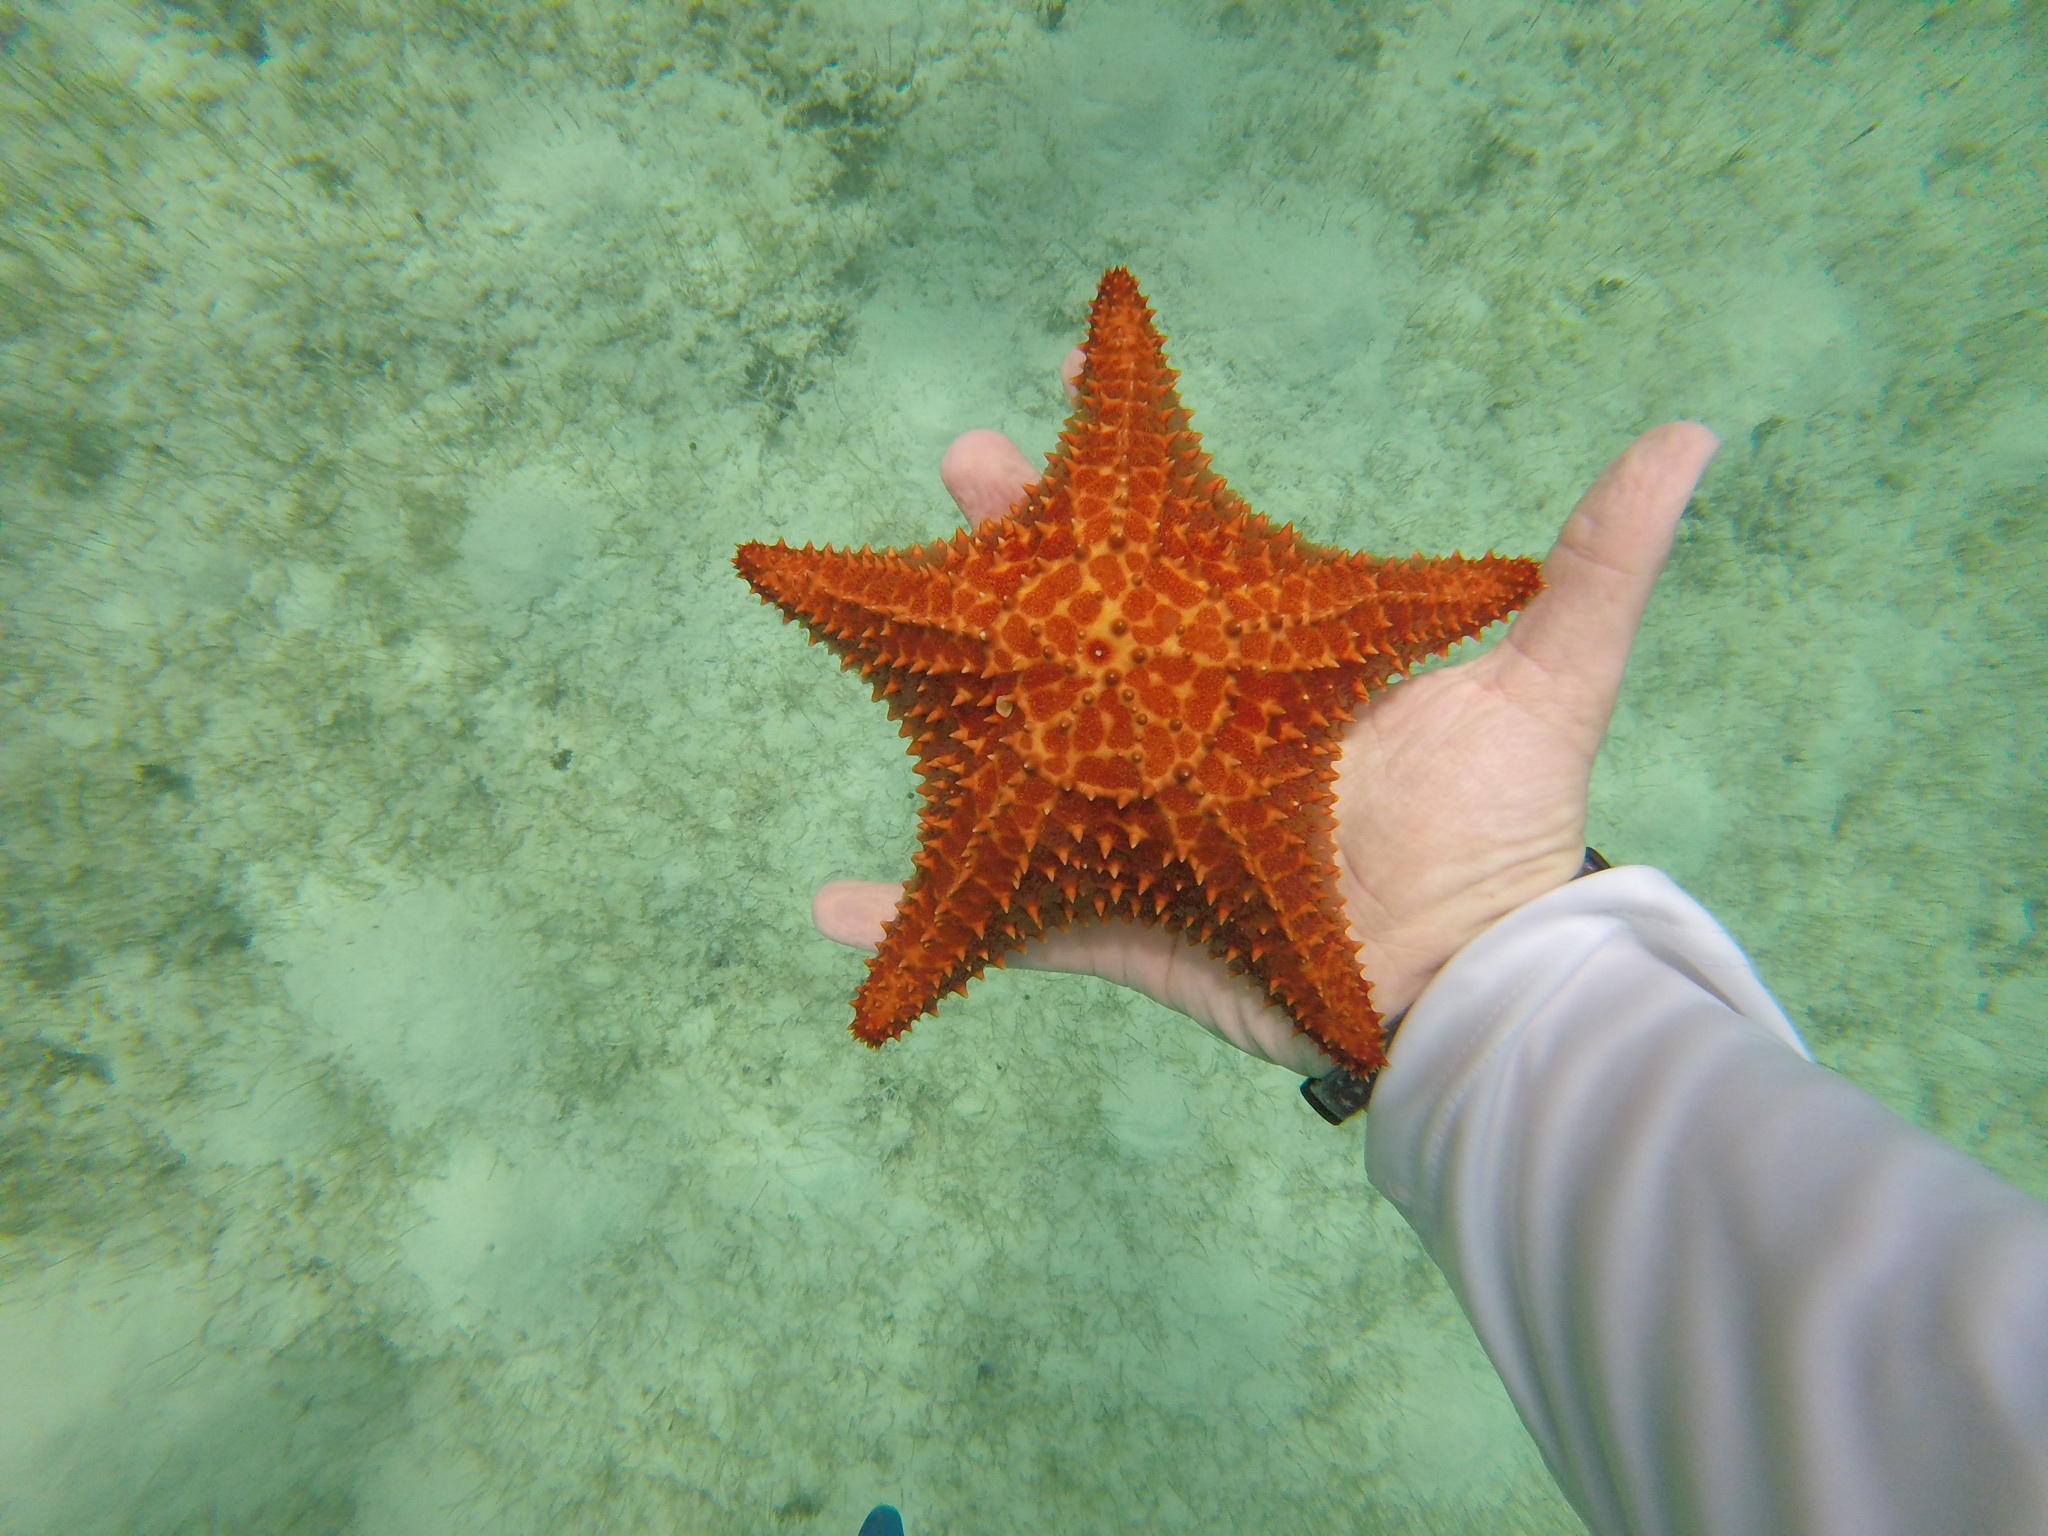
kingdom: Animalia
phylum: Echinodermata
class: Asteroidea
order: Valvatida
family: Oreasteridae
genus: Oreaster
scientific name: Oreaster reticulatus
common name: Cushion sea star
